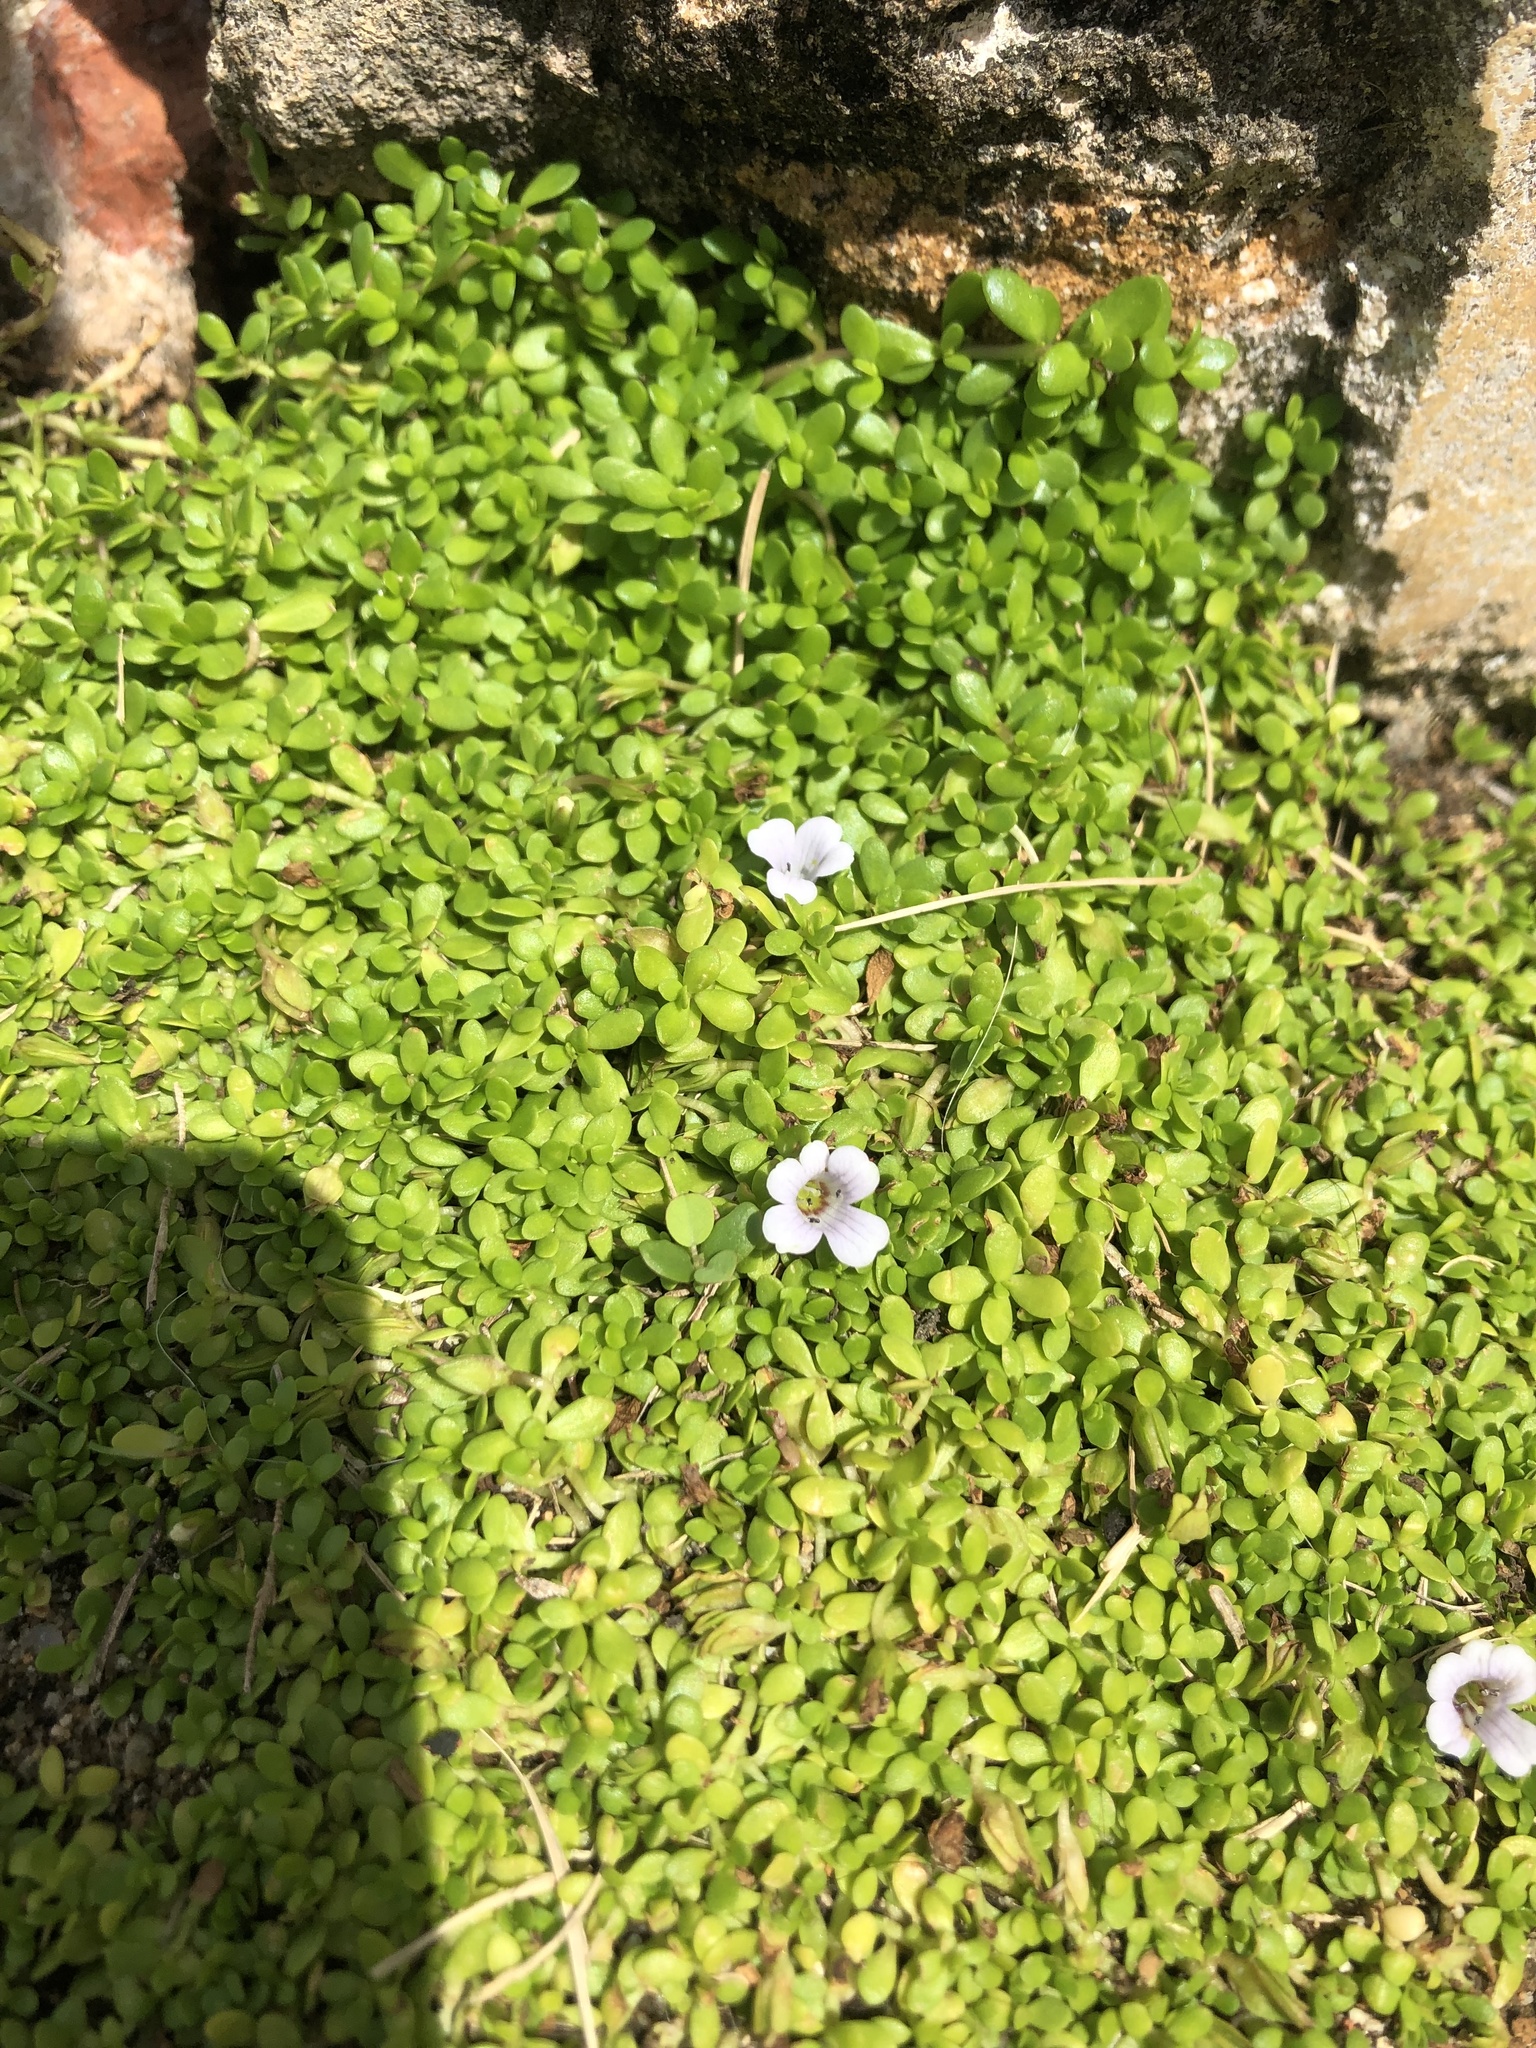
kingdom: Plantae
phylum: Tracheophyta
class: Magnoliopsida
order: Lamiales
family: Plantaginaceae
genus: Bacopa
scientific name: Bacopa monnieri
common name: Indian-pennywort
